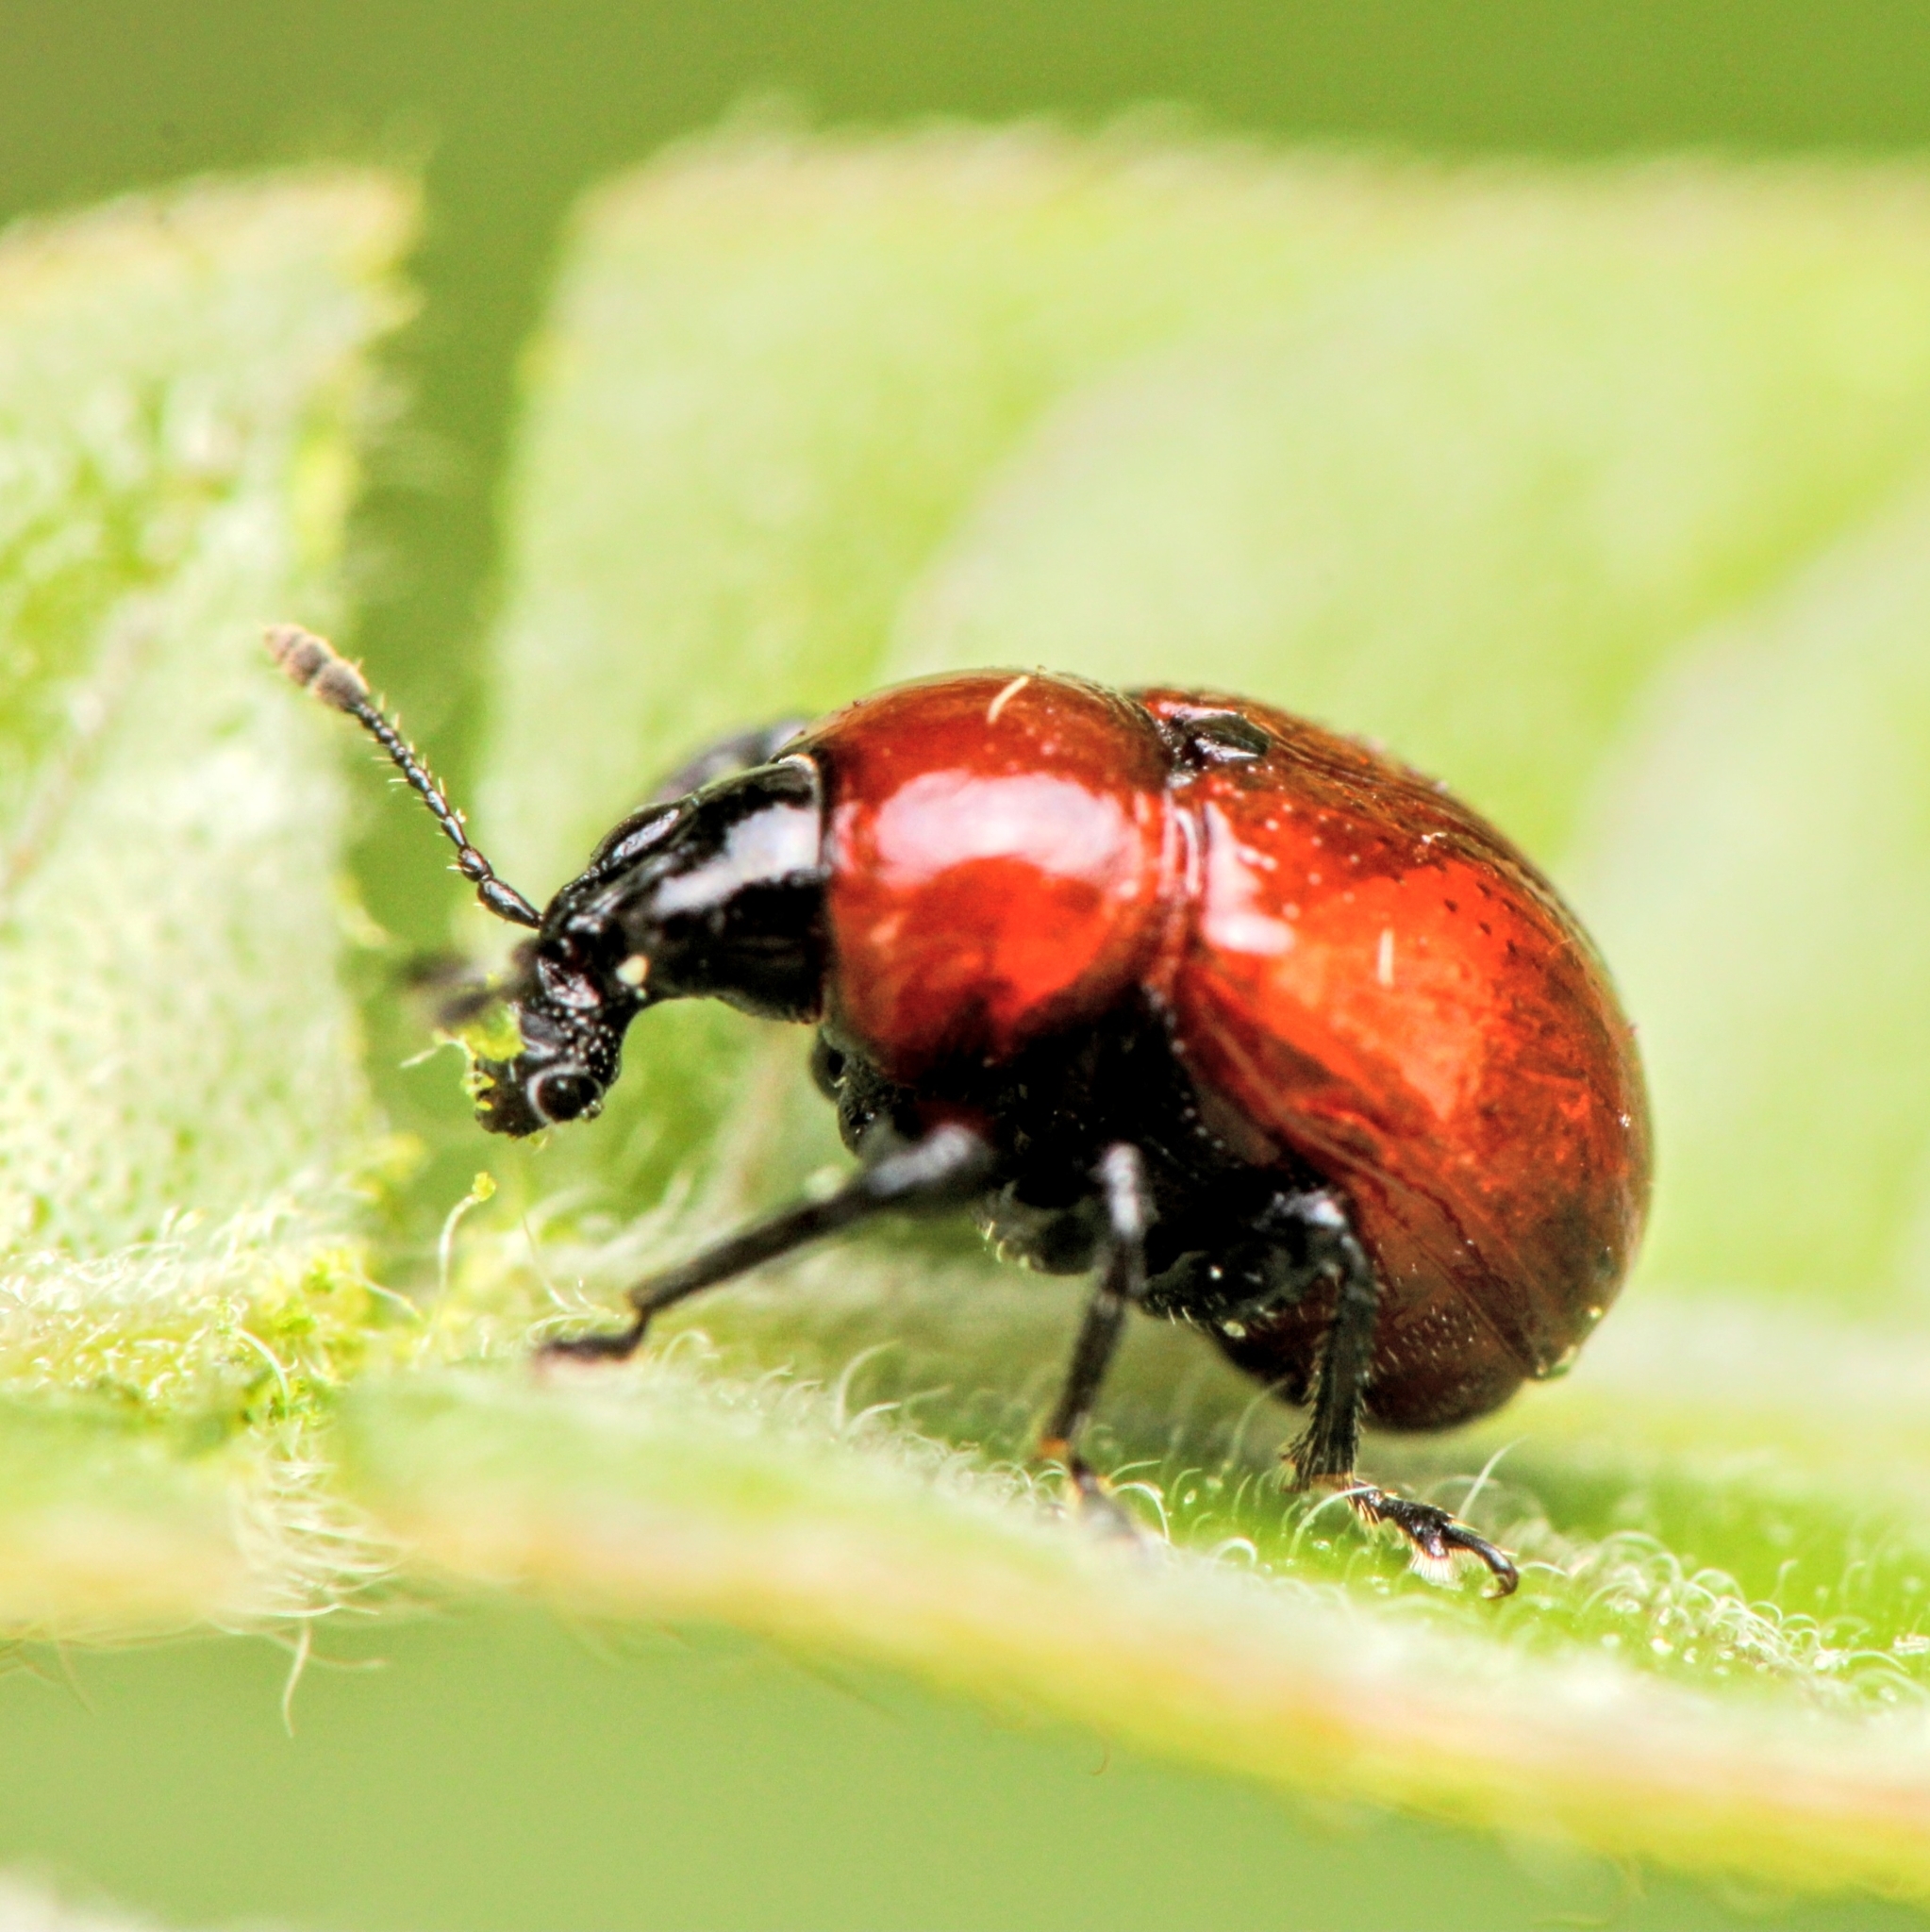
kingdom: Animalia
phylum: Arthropoda
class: Insecta
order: Coleoptera
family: Attelabidae
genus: Synolabus
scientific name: Synolabus nigripes
